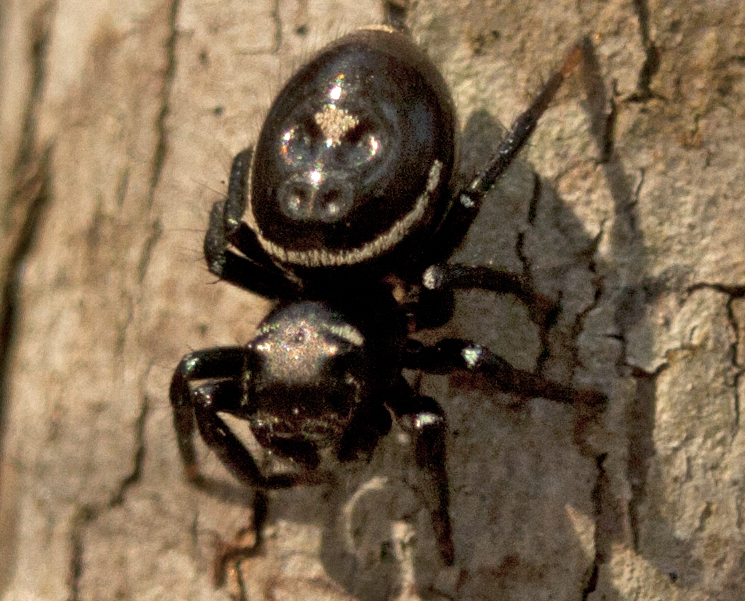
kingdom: Animalia
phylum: Arthropoda
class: Arachnida
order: Araneae
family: Salticidae
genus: Zenodorus
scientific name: Zenodorus orbiculatus
